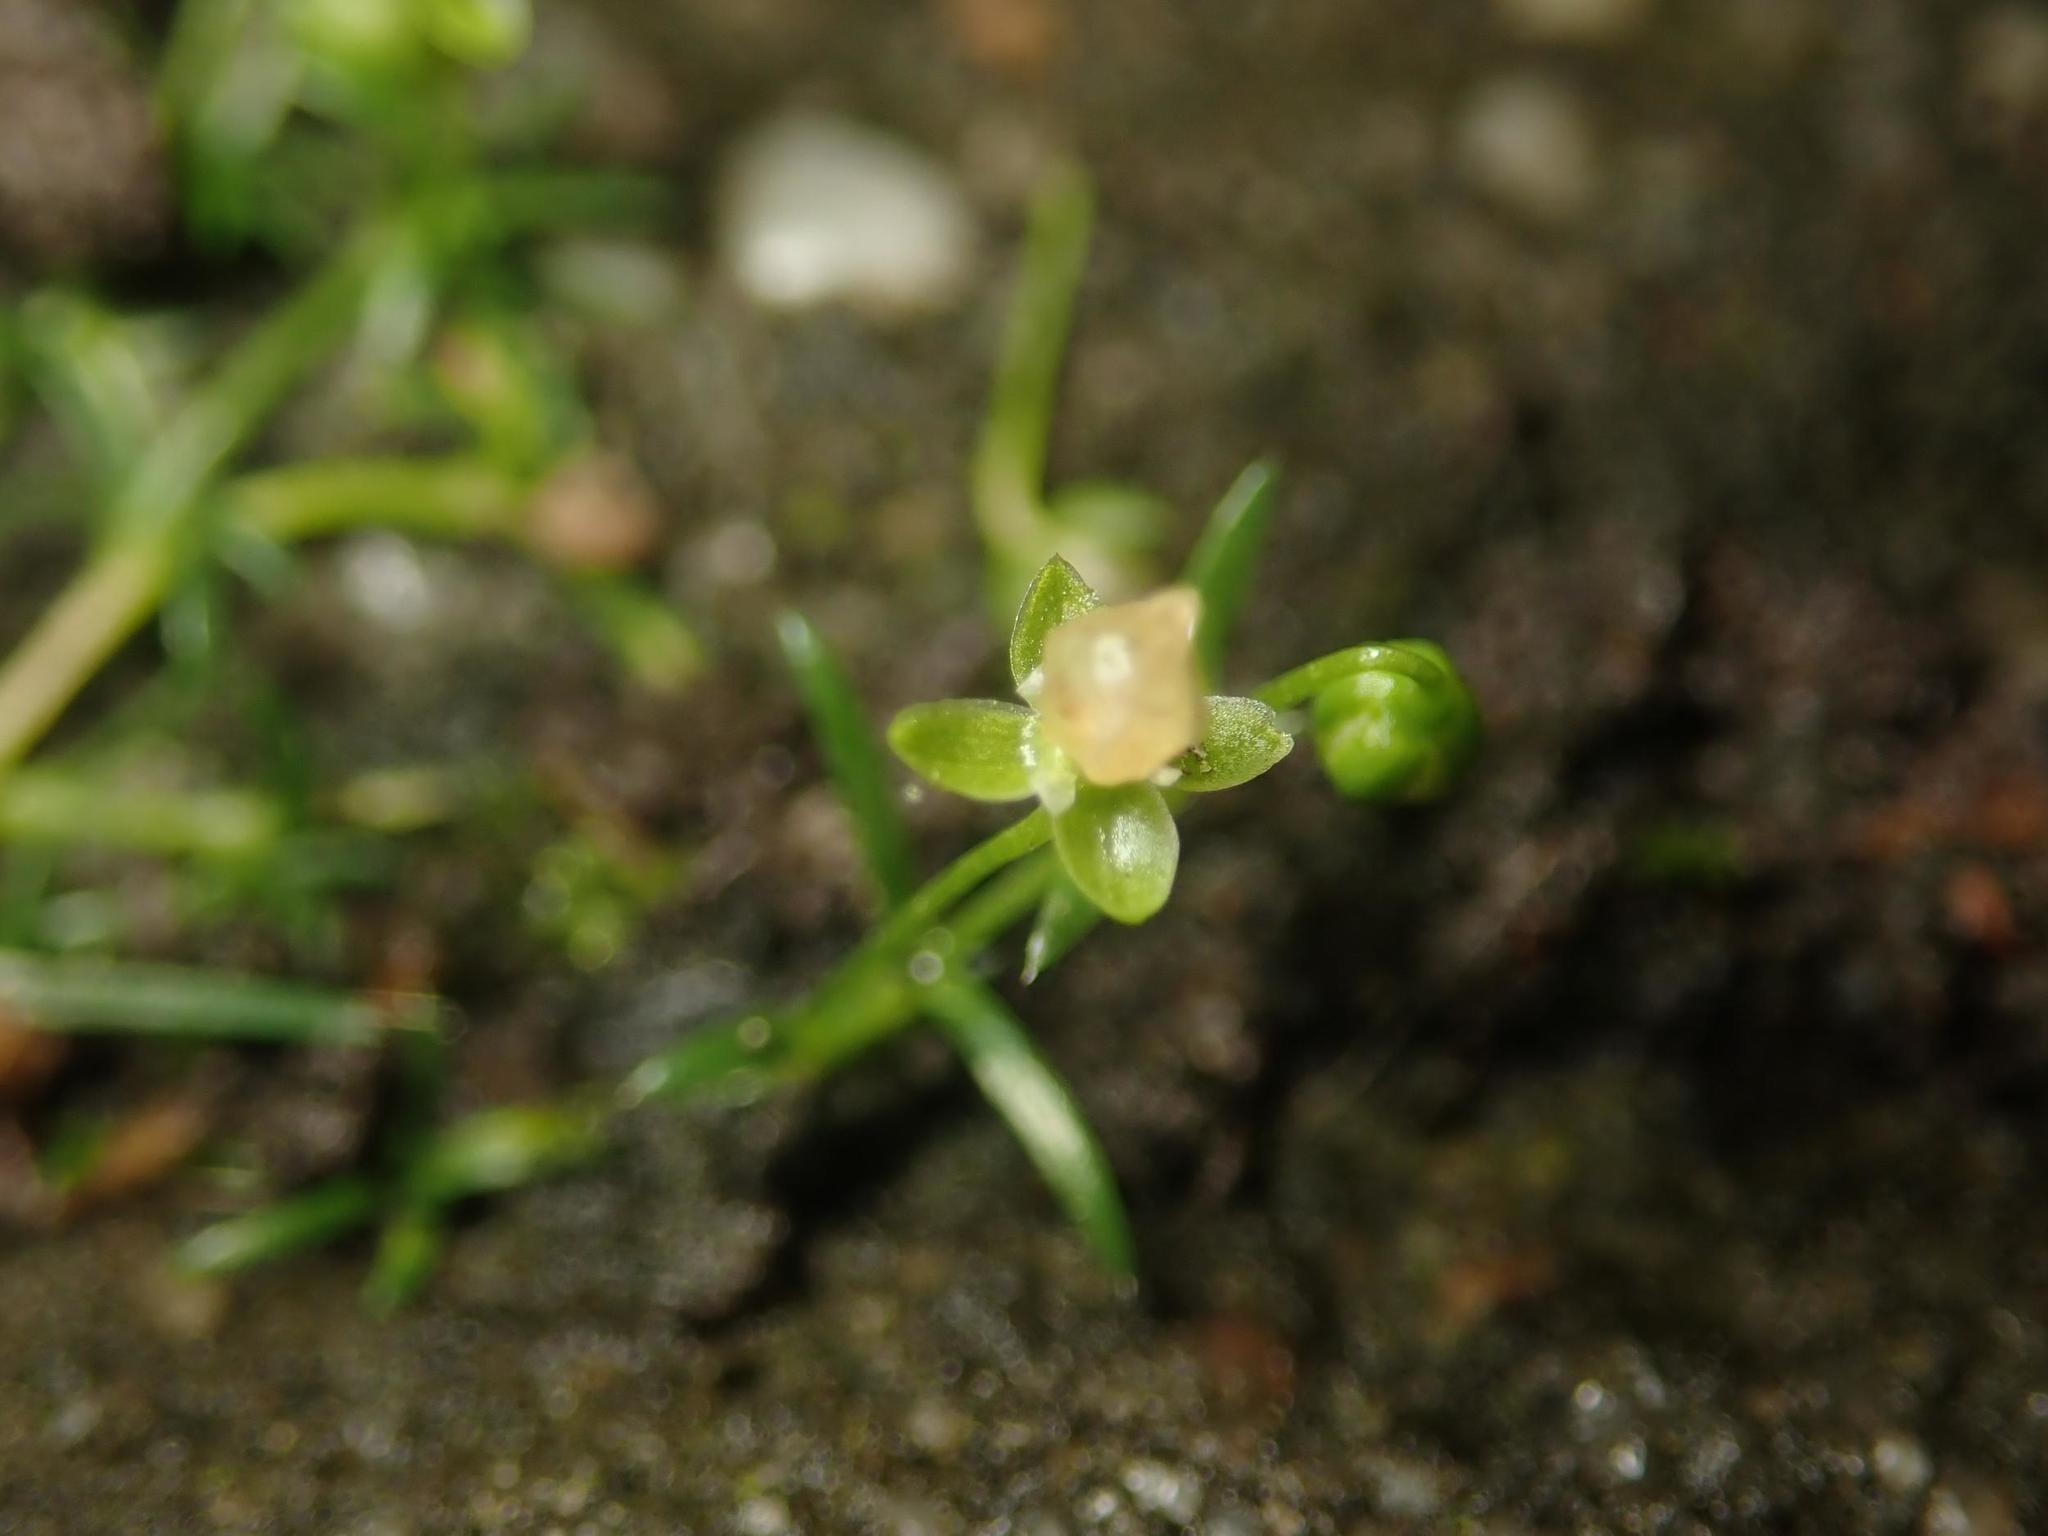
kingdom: Plantae
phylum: Tracheophyta
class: Magnoliopsida
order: Caryophyllales
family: Caryophyllaceae
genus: Sagina
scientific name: Sagina procumbens
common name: Procumbent pearlwort
